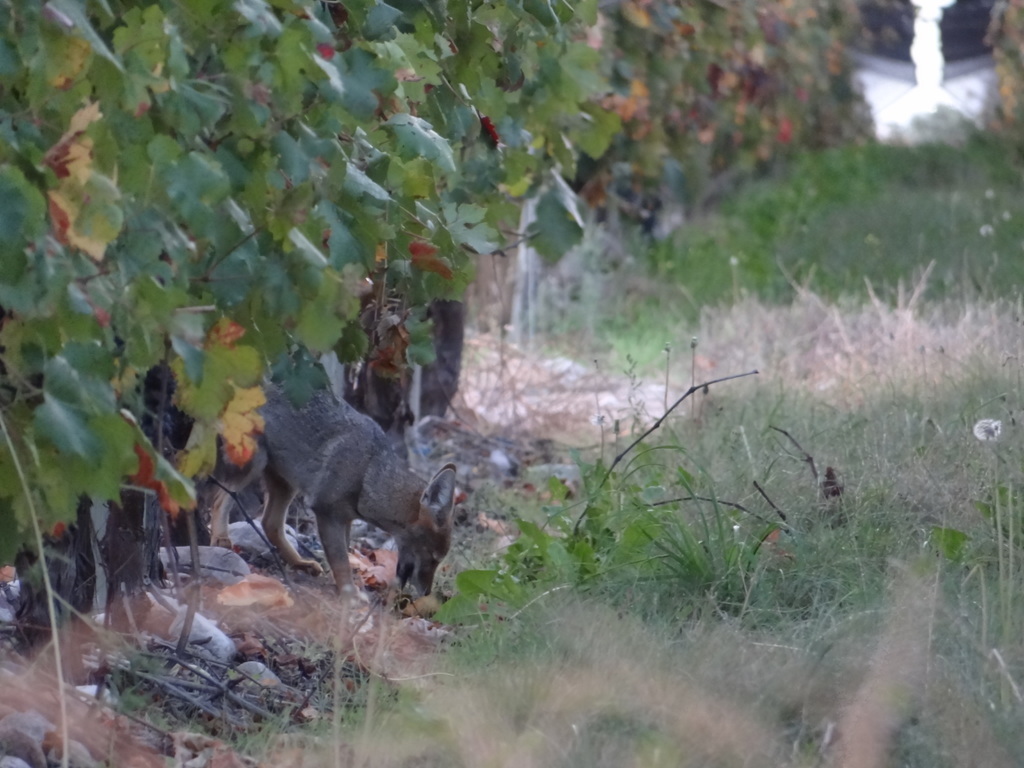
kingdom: Animalia
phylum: Chordata
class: Mammalia
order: Carnivora
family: Canidae
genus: Lycalopex
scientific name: Lycalopex gymnocercus
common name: Pampas fox
